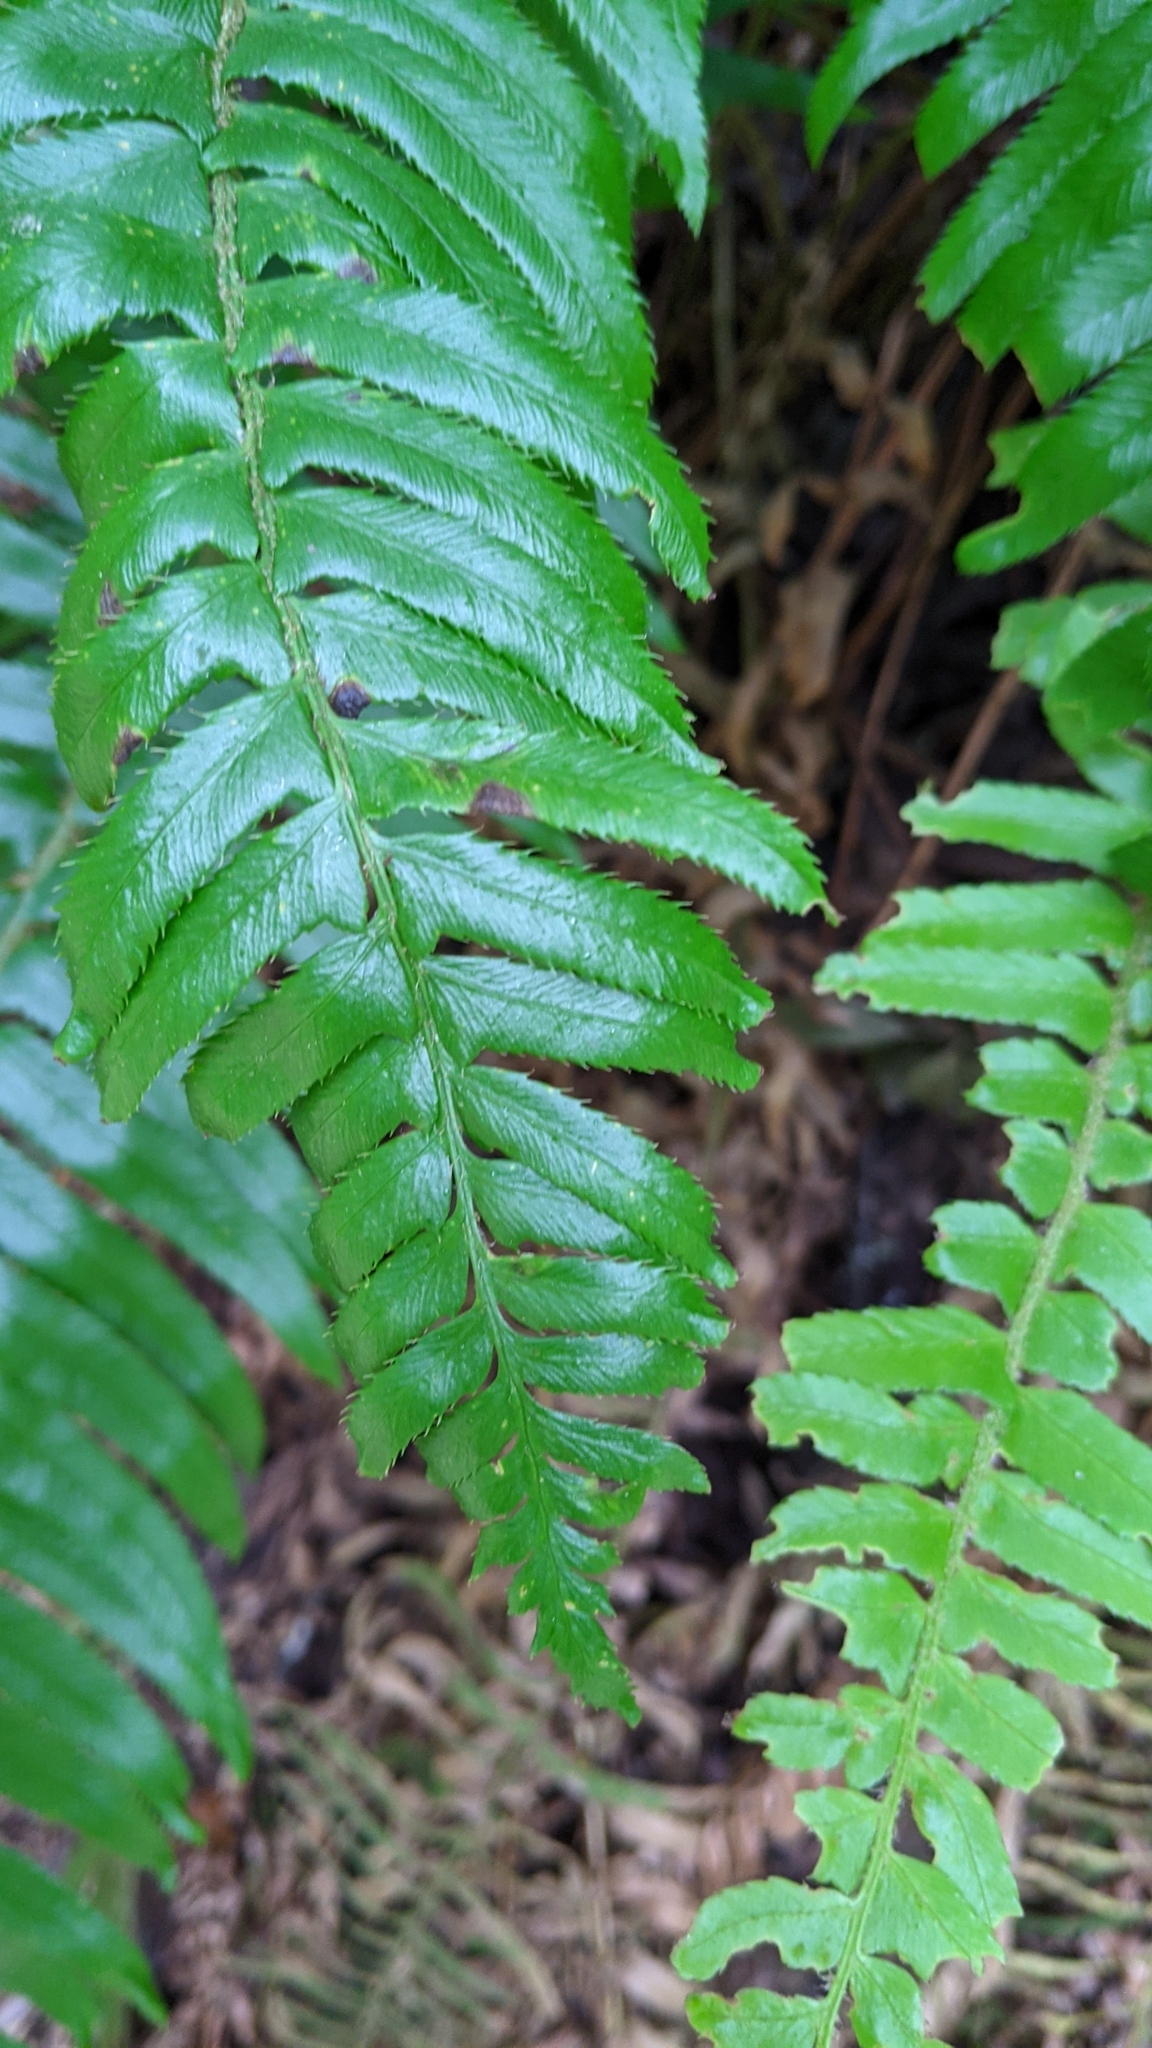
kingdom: Plantae
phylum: Tracheophyta
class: Polypodiopsida
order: Polypodiales
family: Dryopteridaceae
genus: Polystichum
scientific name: Polystichum munitum
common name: Western sword-fern
